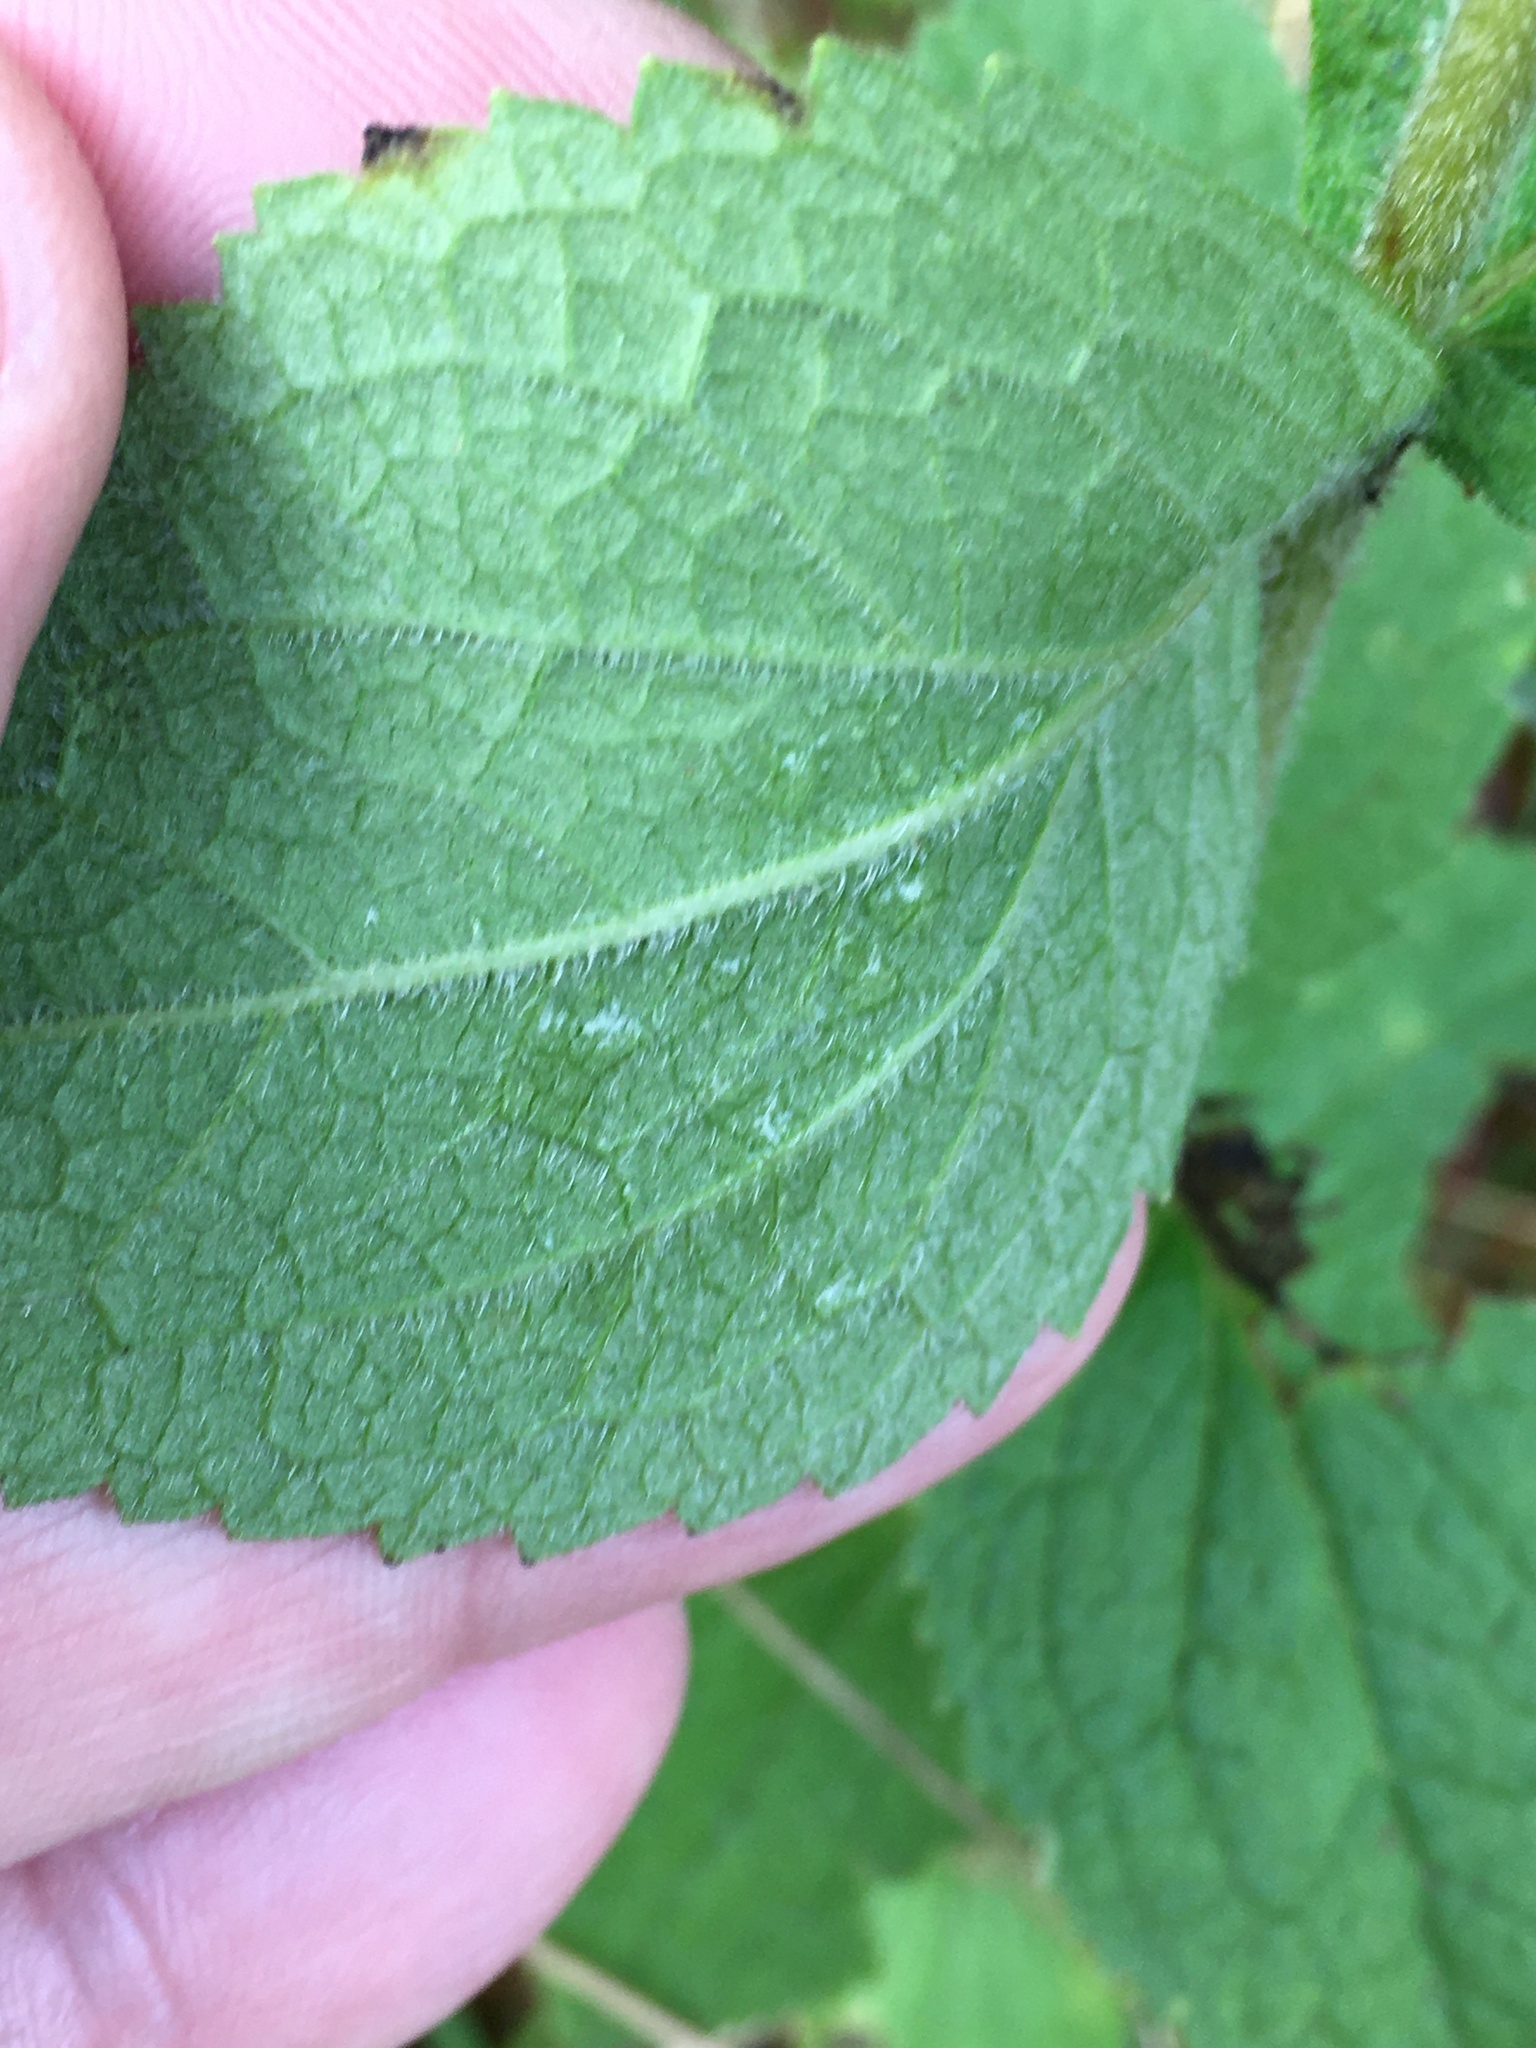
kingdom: Plantae
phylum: Tracheophyta
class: Magnoliopsida
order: Asterales
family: Asteraceae
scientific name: Asteraceae
